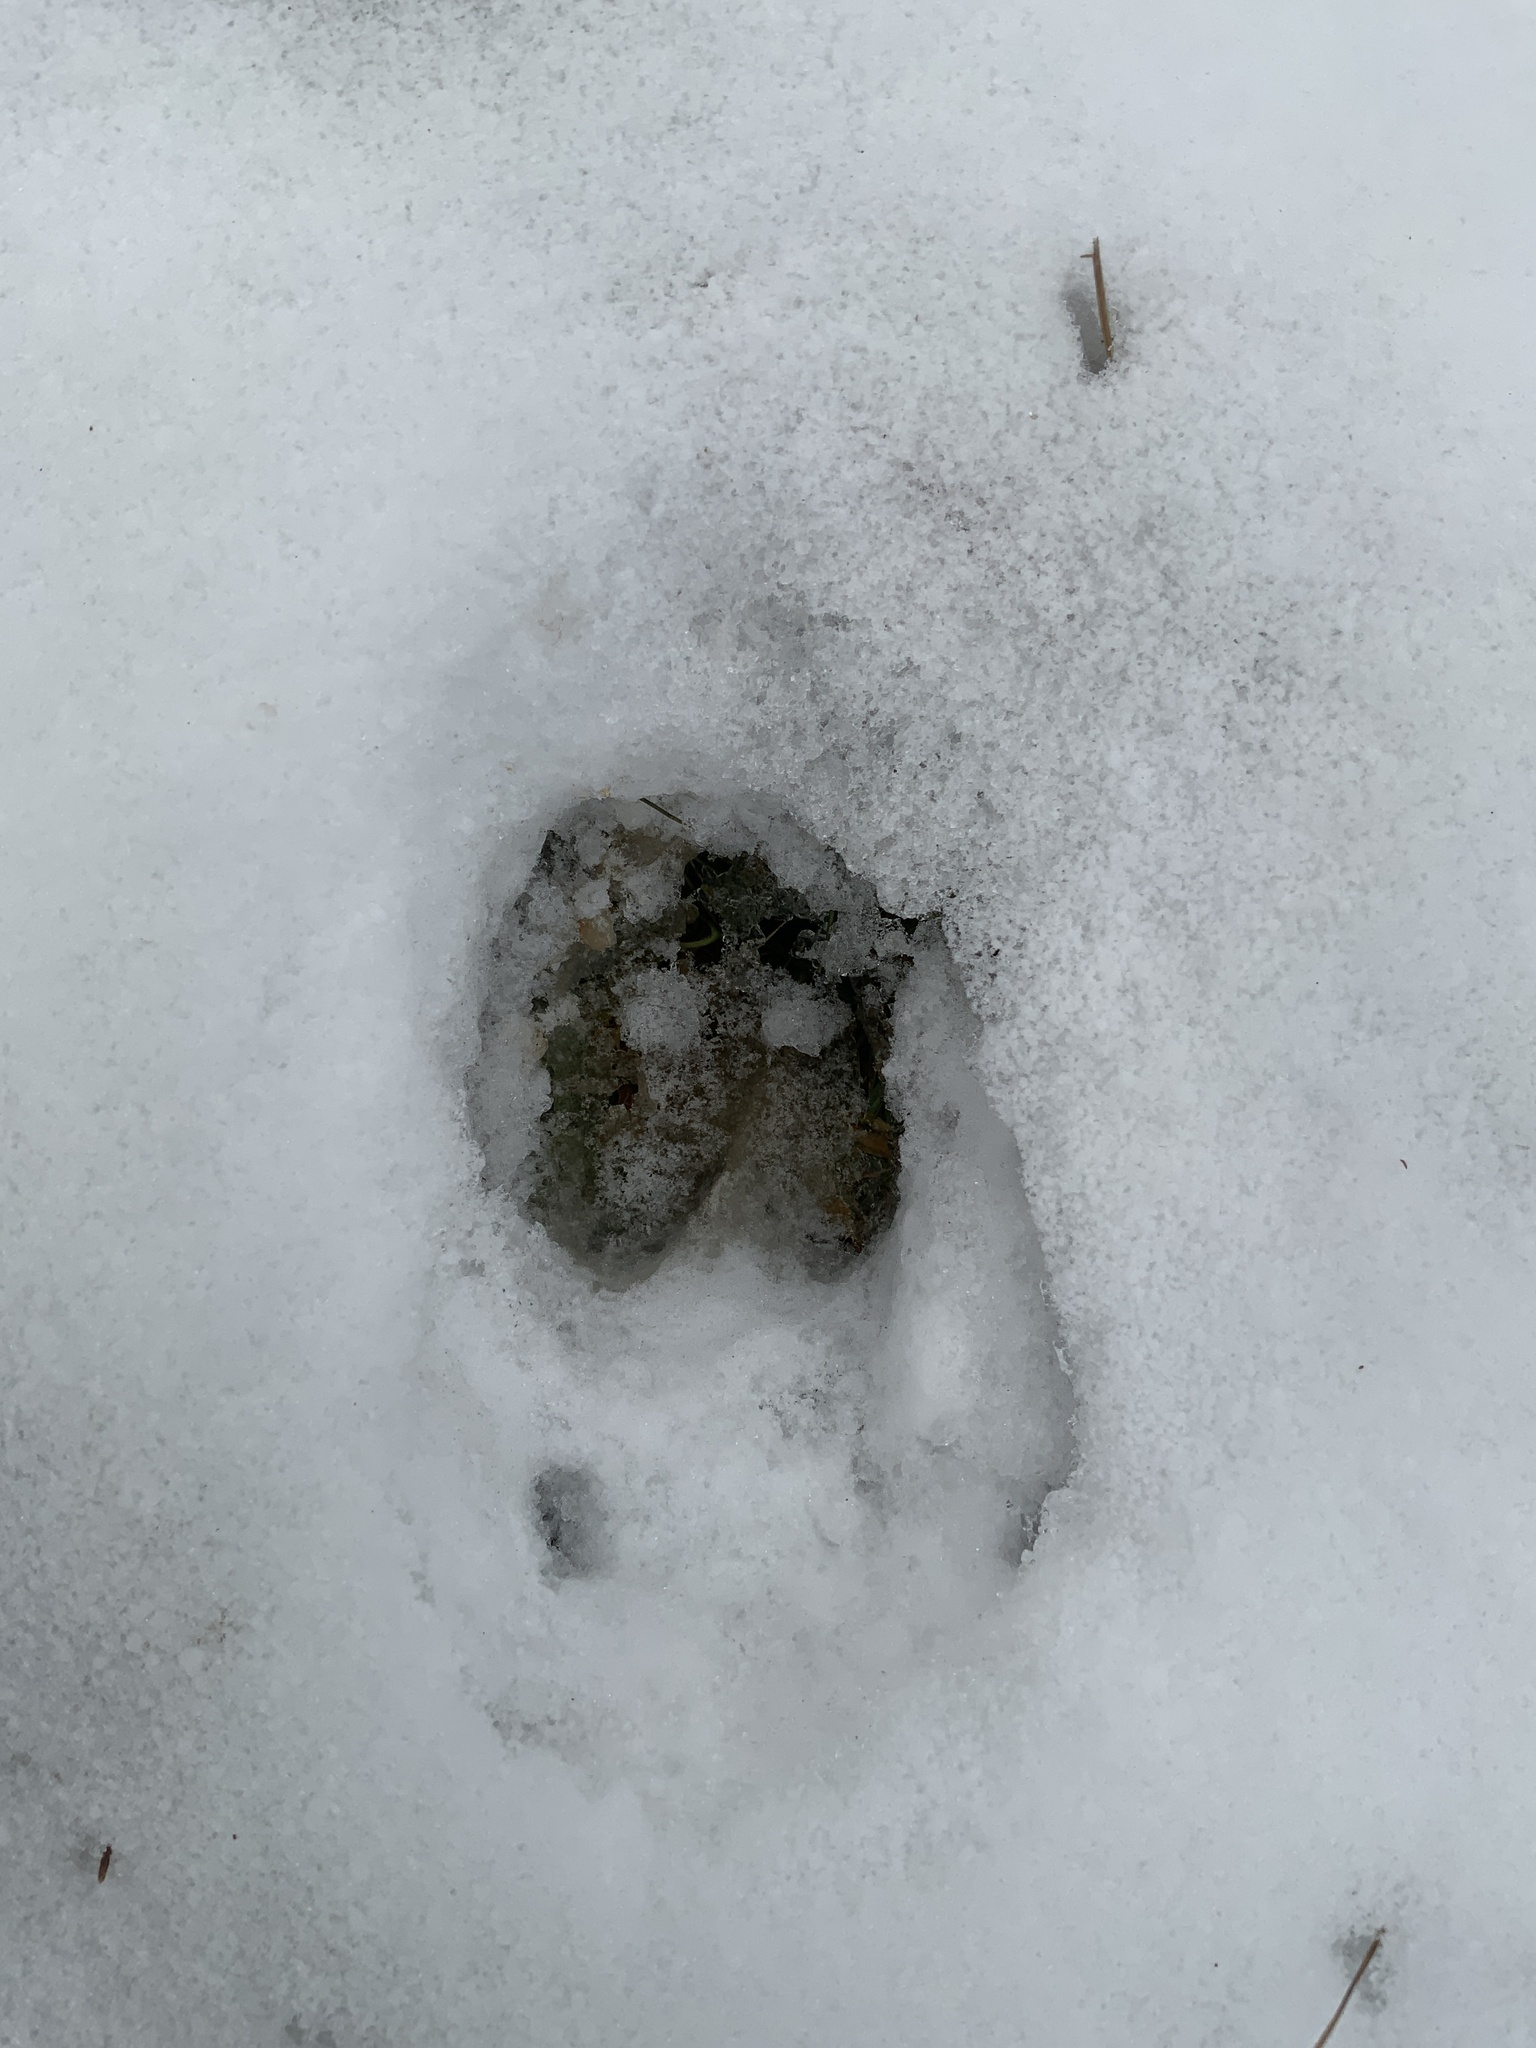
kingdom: Animalia
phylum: Chordata
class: Mammalia
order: Artiodactyla
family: Cervidae
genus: Odocoileus
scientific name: Odocoileus virginianus
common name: White-tailed deer
